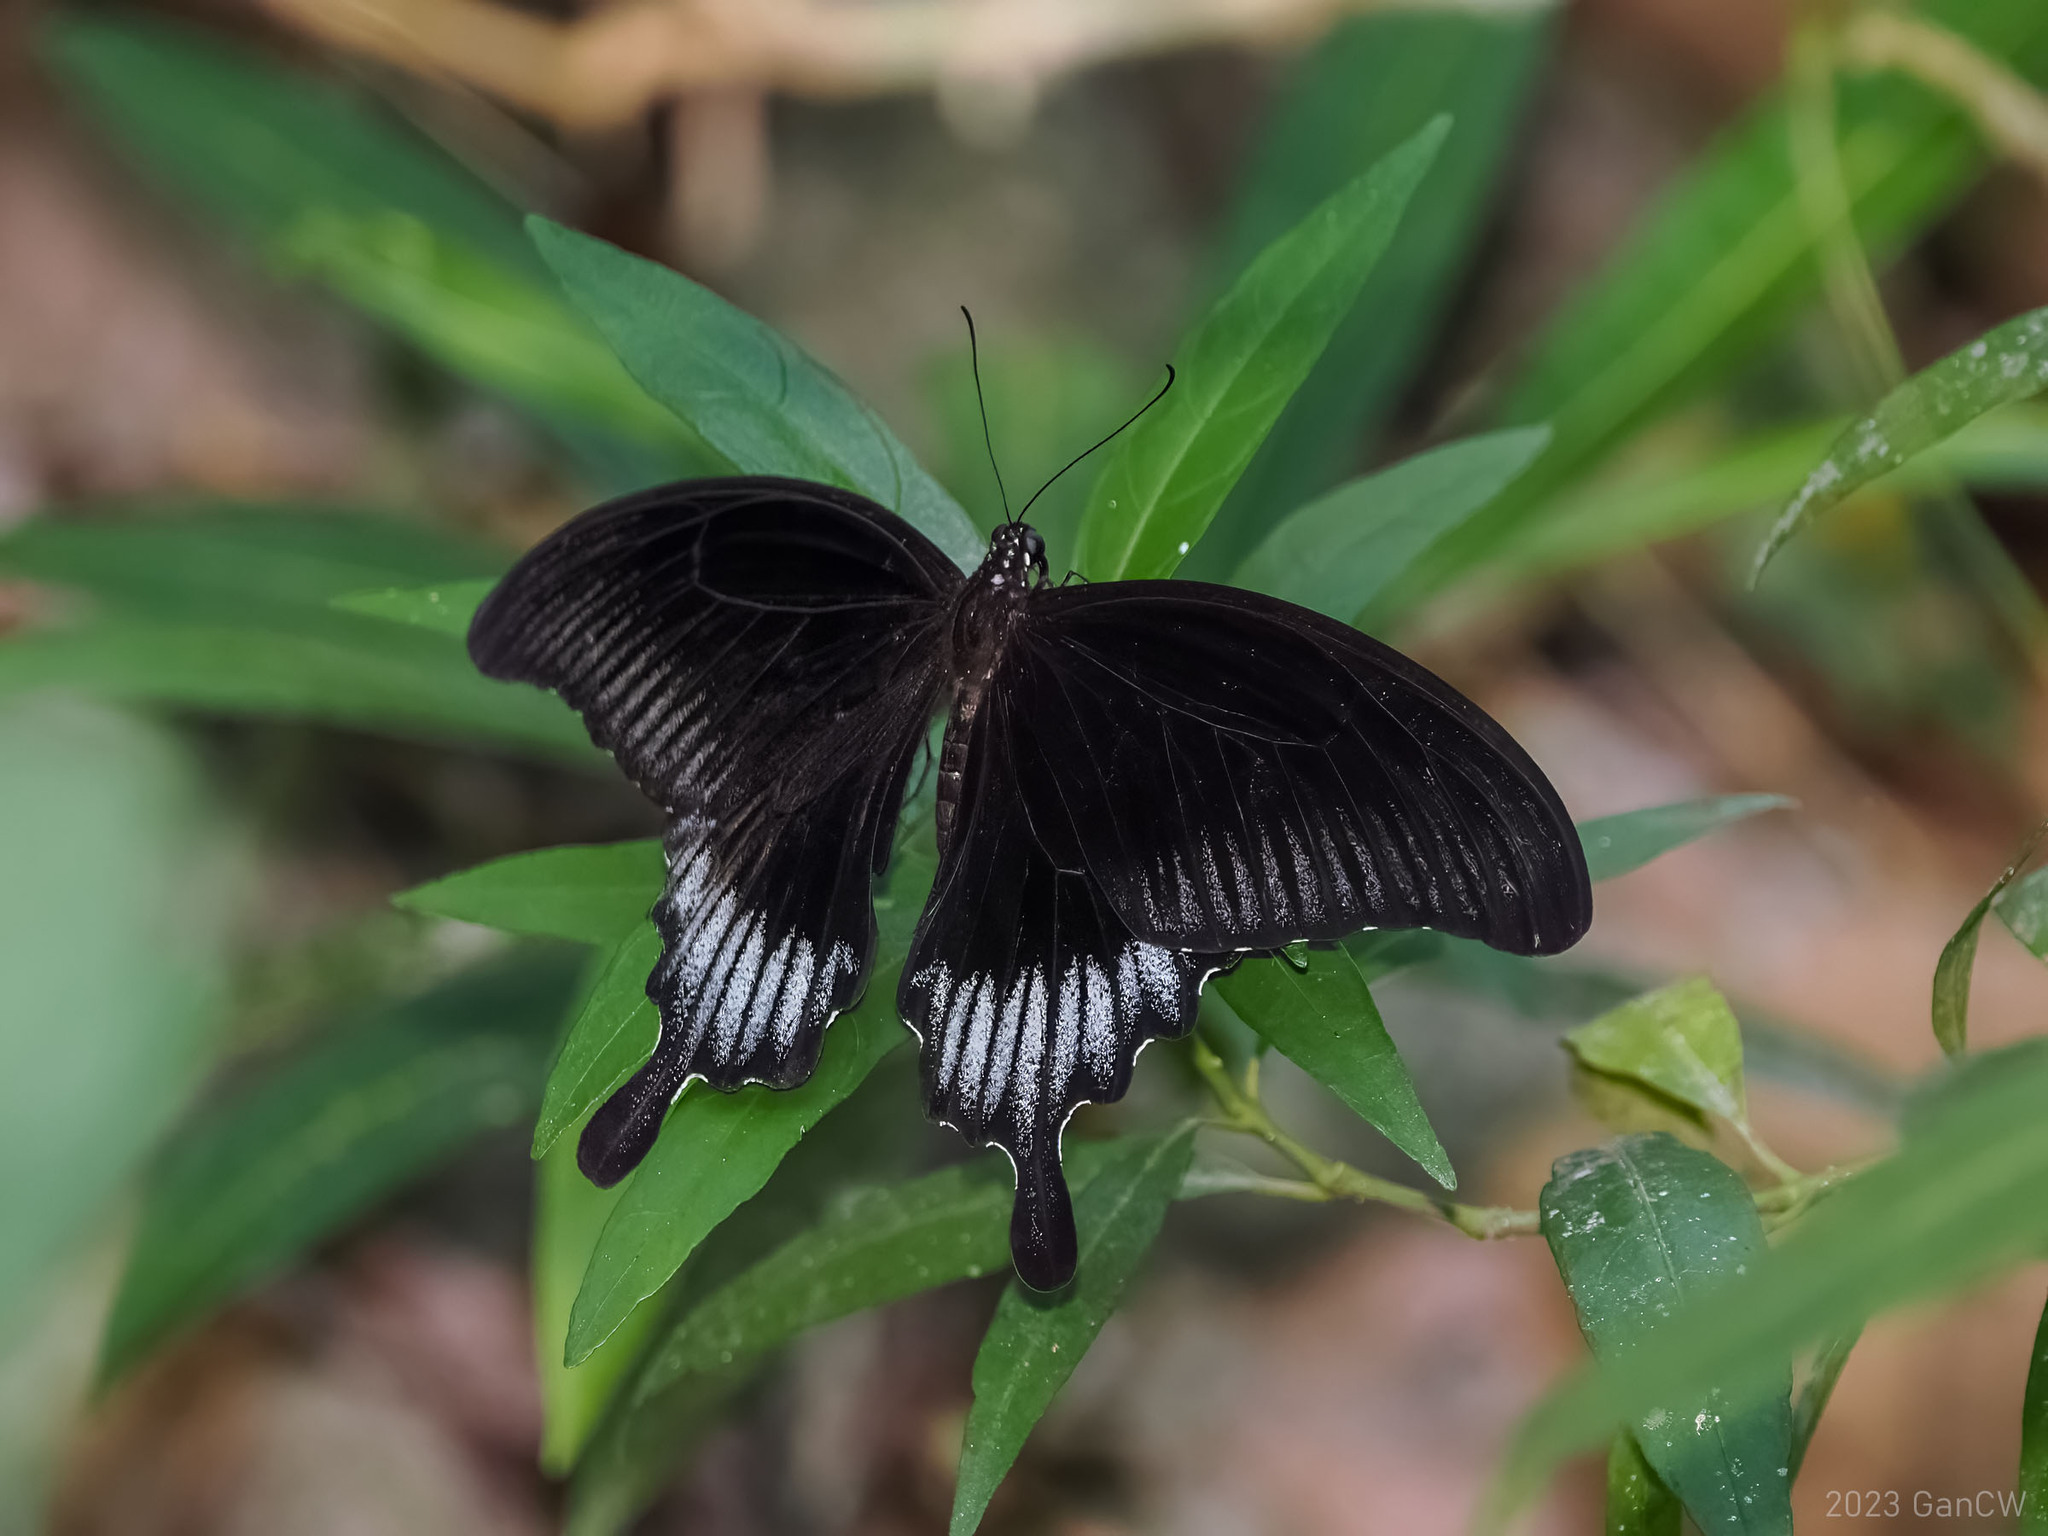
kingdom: Animalia
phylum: Arthropoda
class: Insecta
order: Lepidoptera
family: Papilionidae
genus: Papilio
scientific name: Papilio ascalaphus
